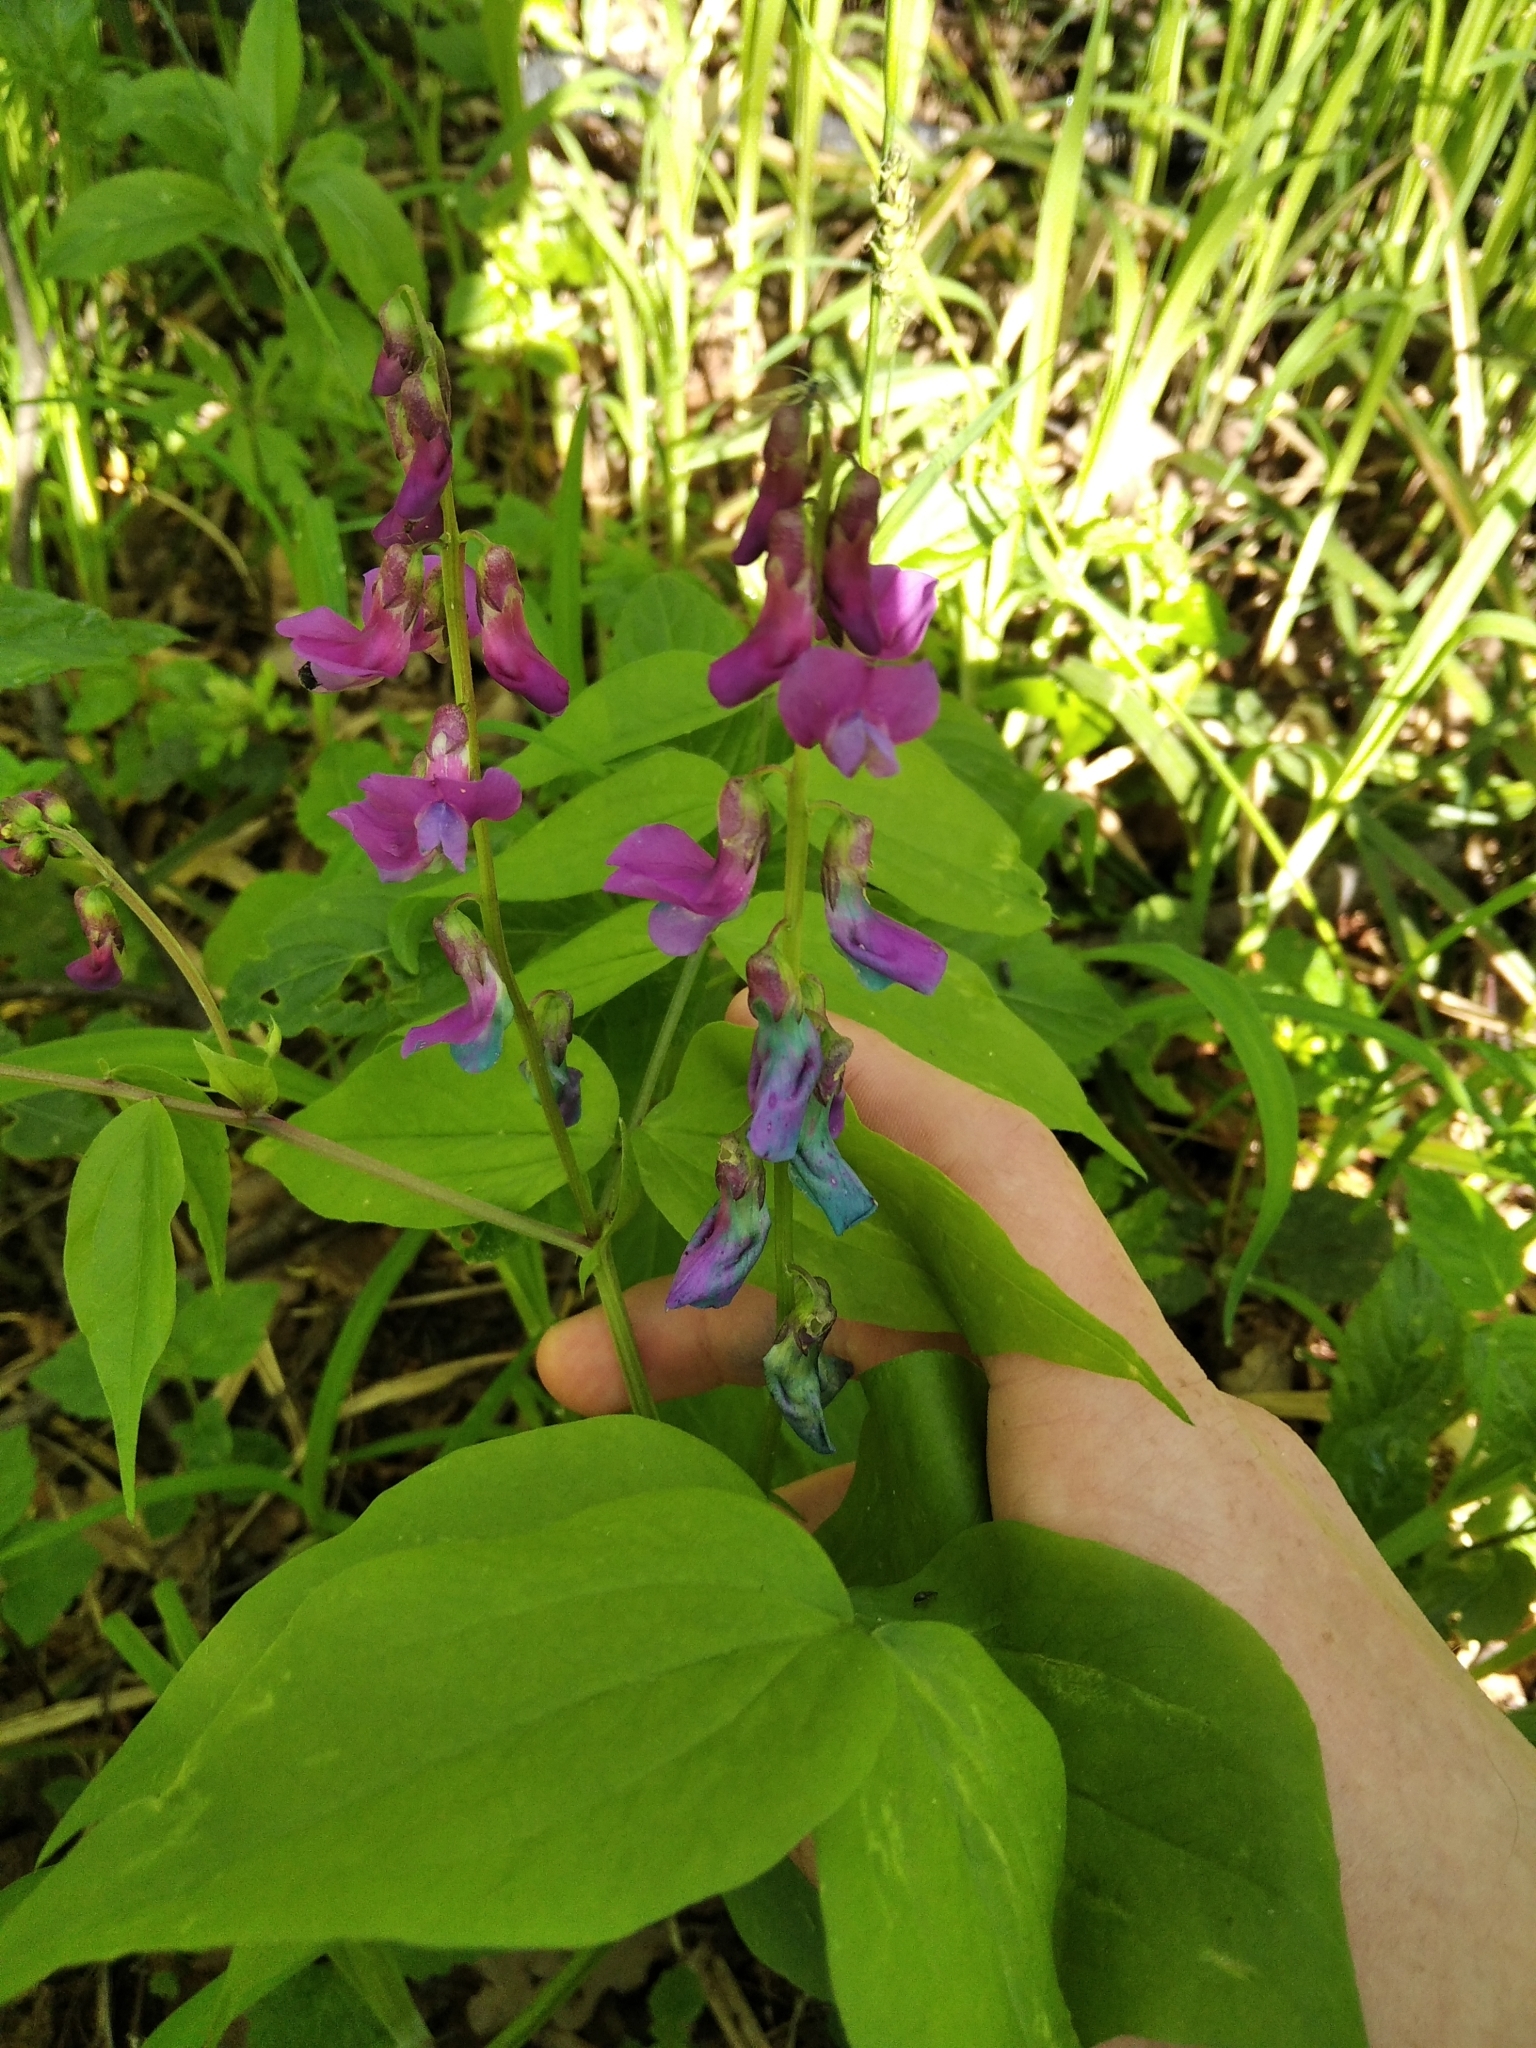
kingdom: Plantae
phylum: Tracheophyta
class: Magnoliopsida
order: Fabales
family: Fabaceae
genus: Lathyrus
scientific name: Lathyrus vernus
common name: Spring pea
